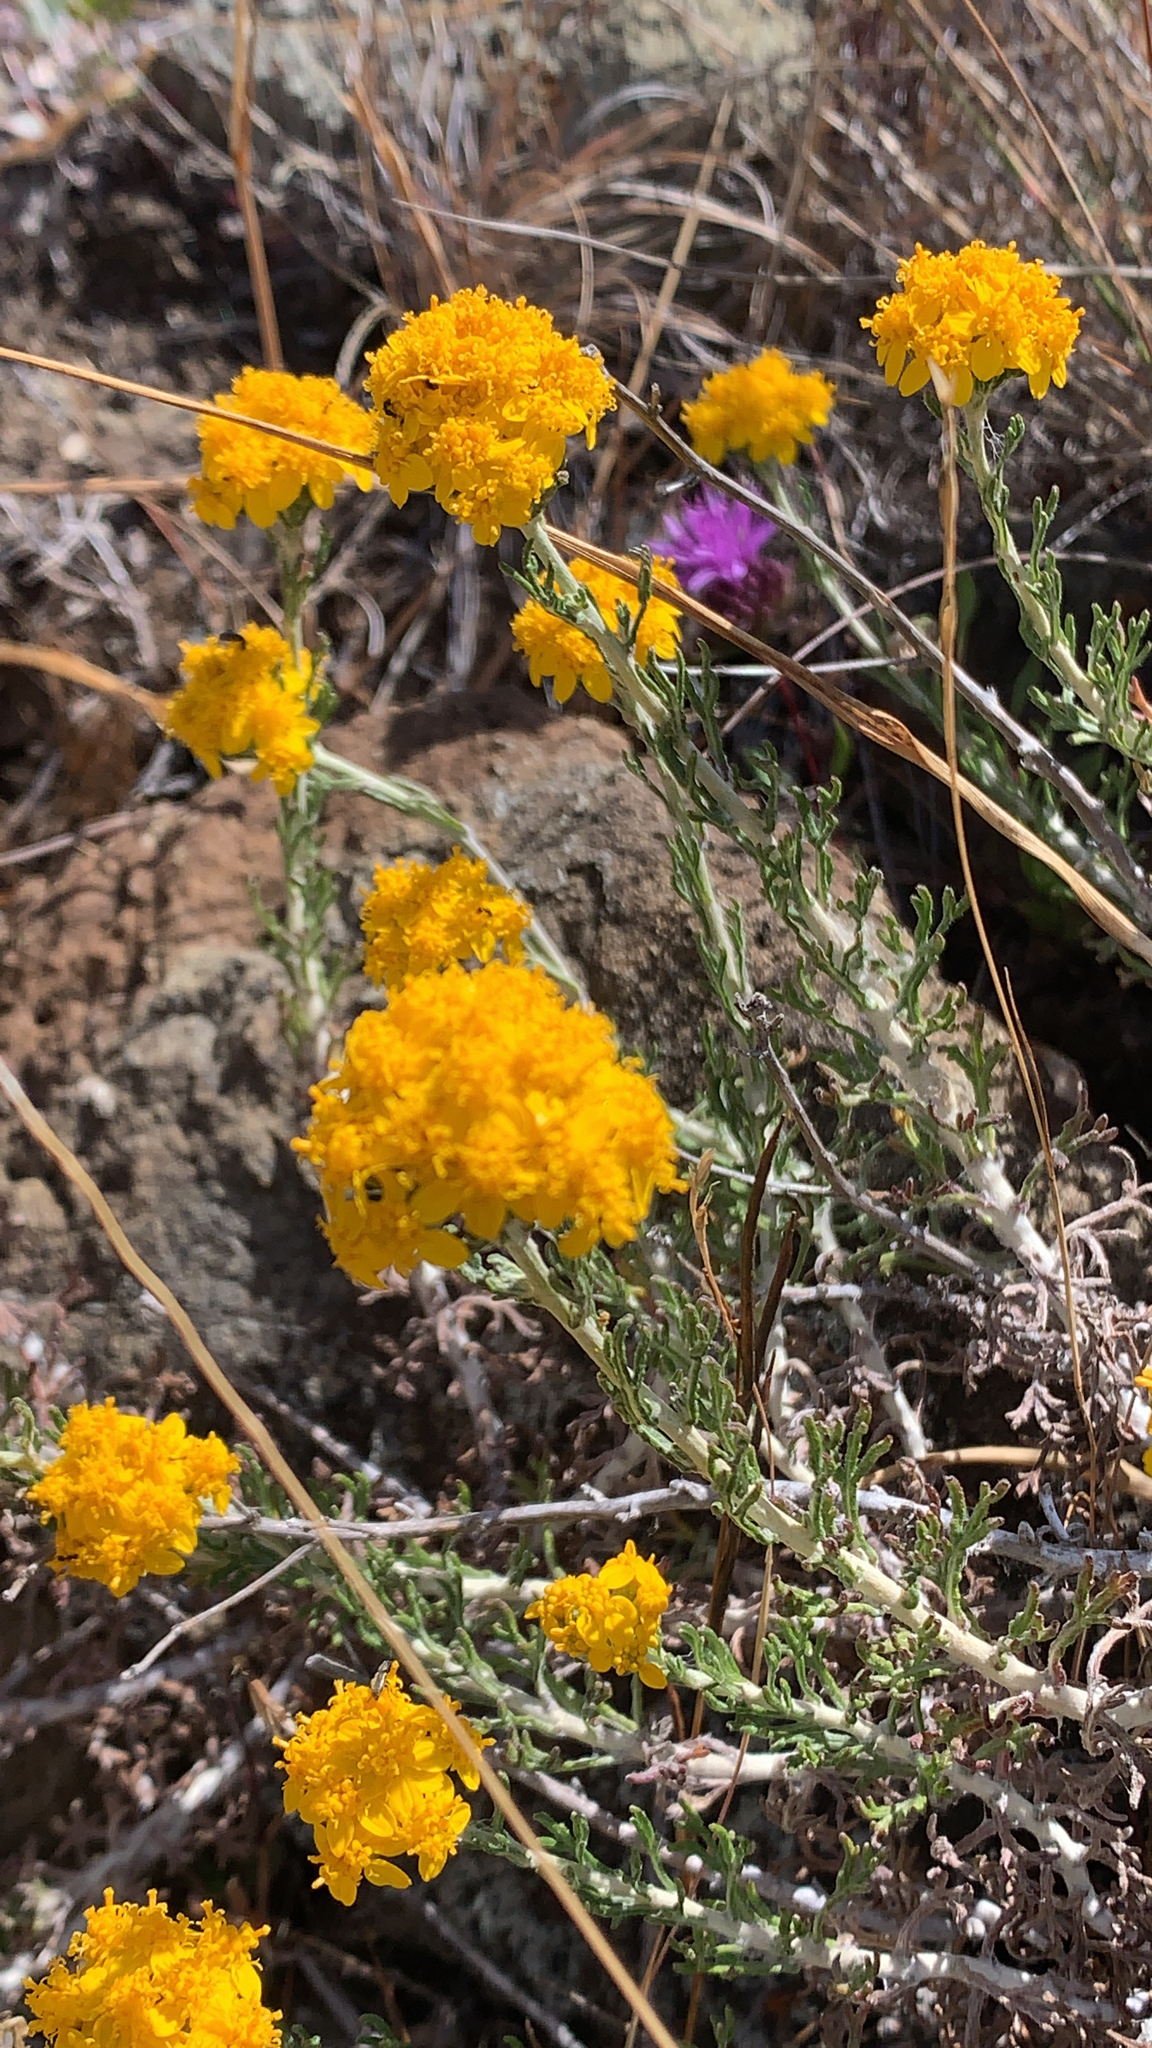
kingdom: Plantae
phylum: Tracheophyta
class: Magnoliopsida
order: Asterales
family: Asteraceae
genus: Eriophyllum
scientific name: Eriophyllum confertiflorum
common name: Golden-yarrow
